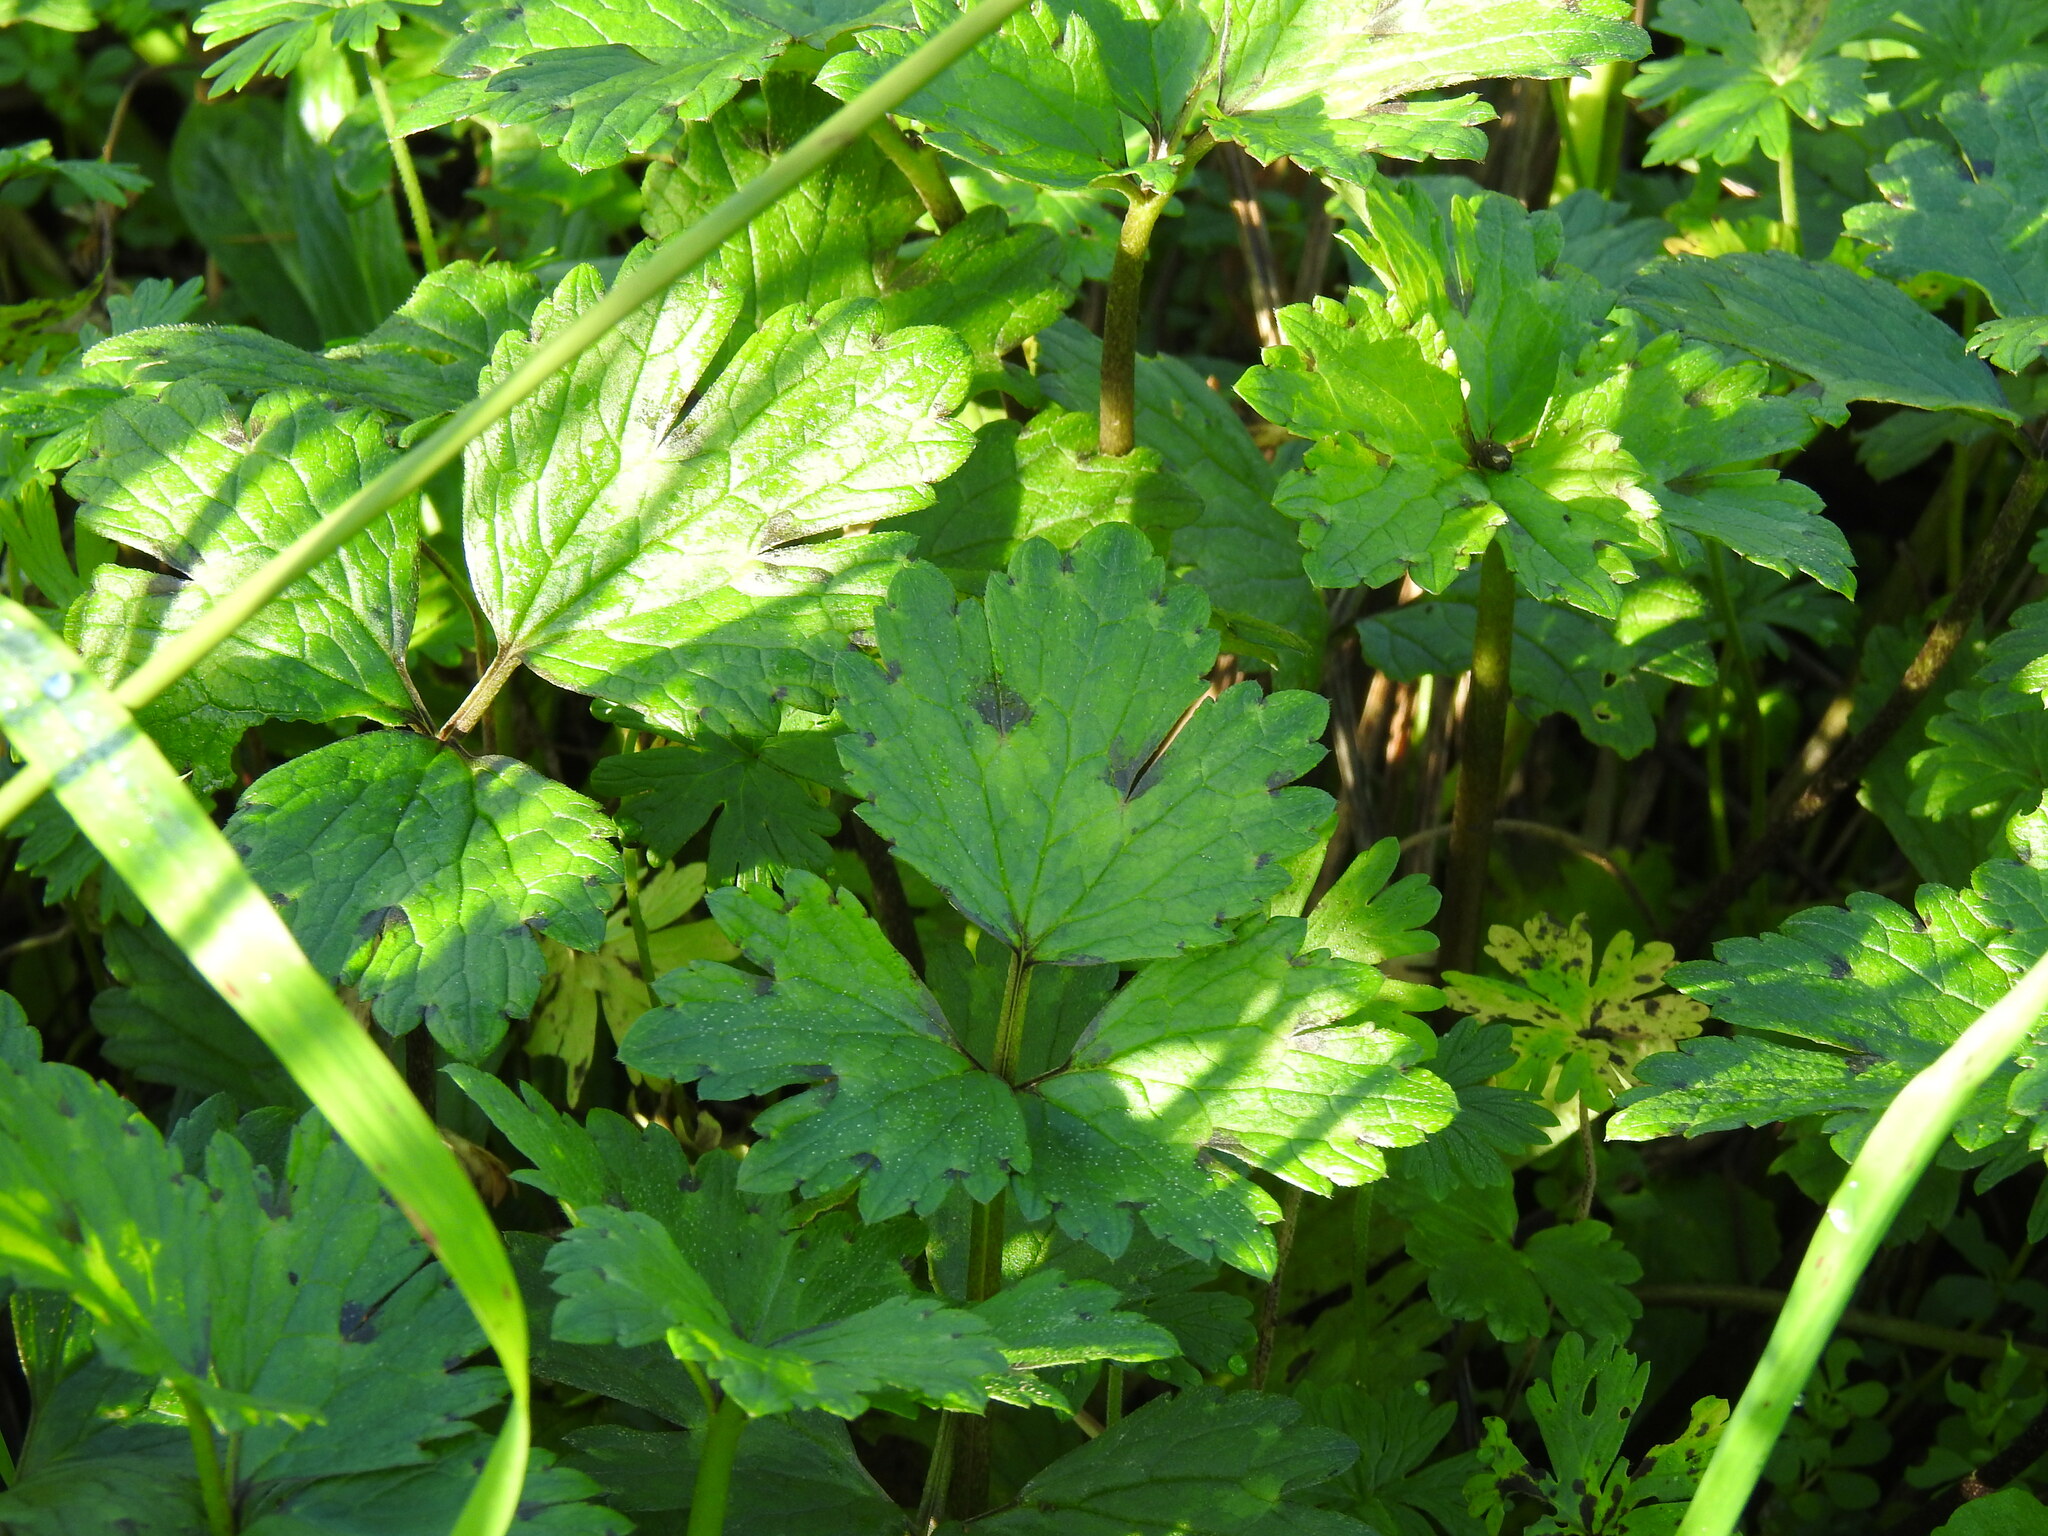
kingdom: Plantae
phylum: Tracheophyta
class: Magnoliopsida
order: Ranunculales
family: Ranunculaceae
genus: Ranunculus
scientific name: Ranunculus repens
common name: Creeping buttercup
